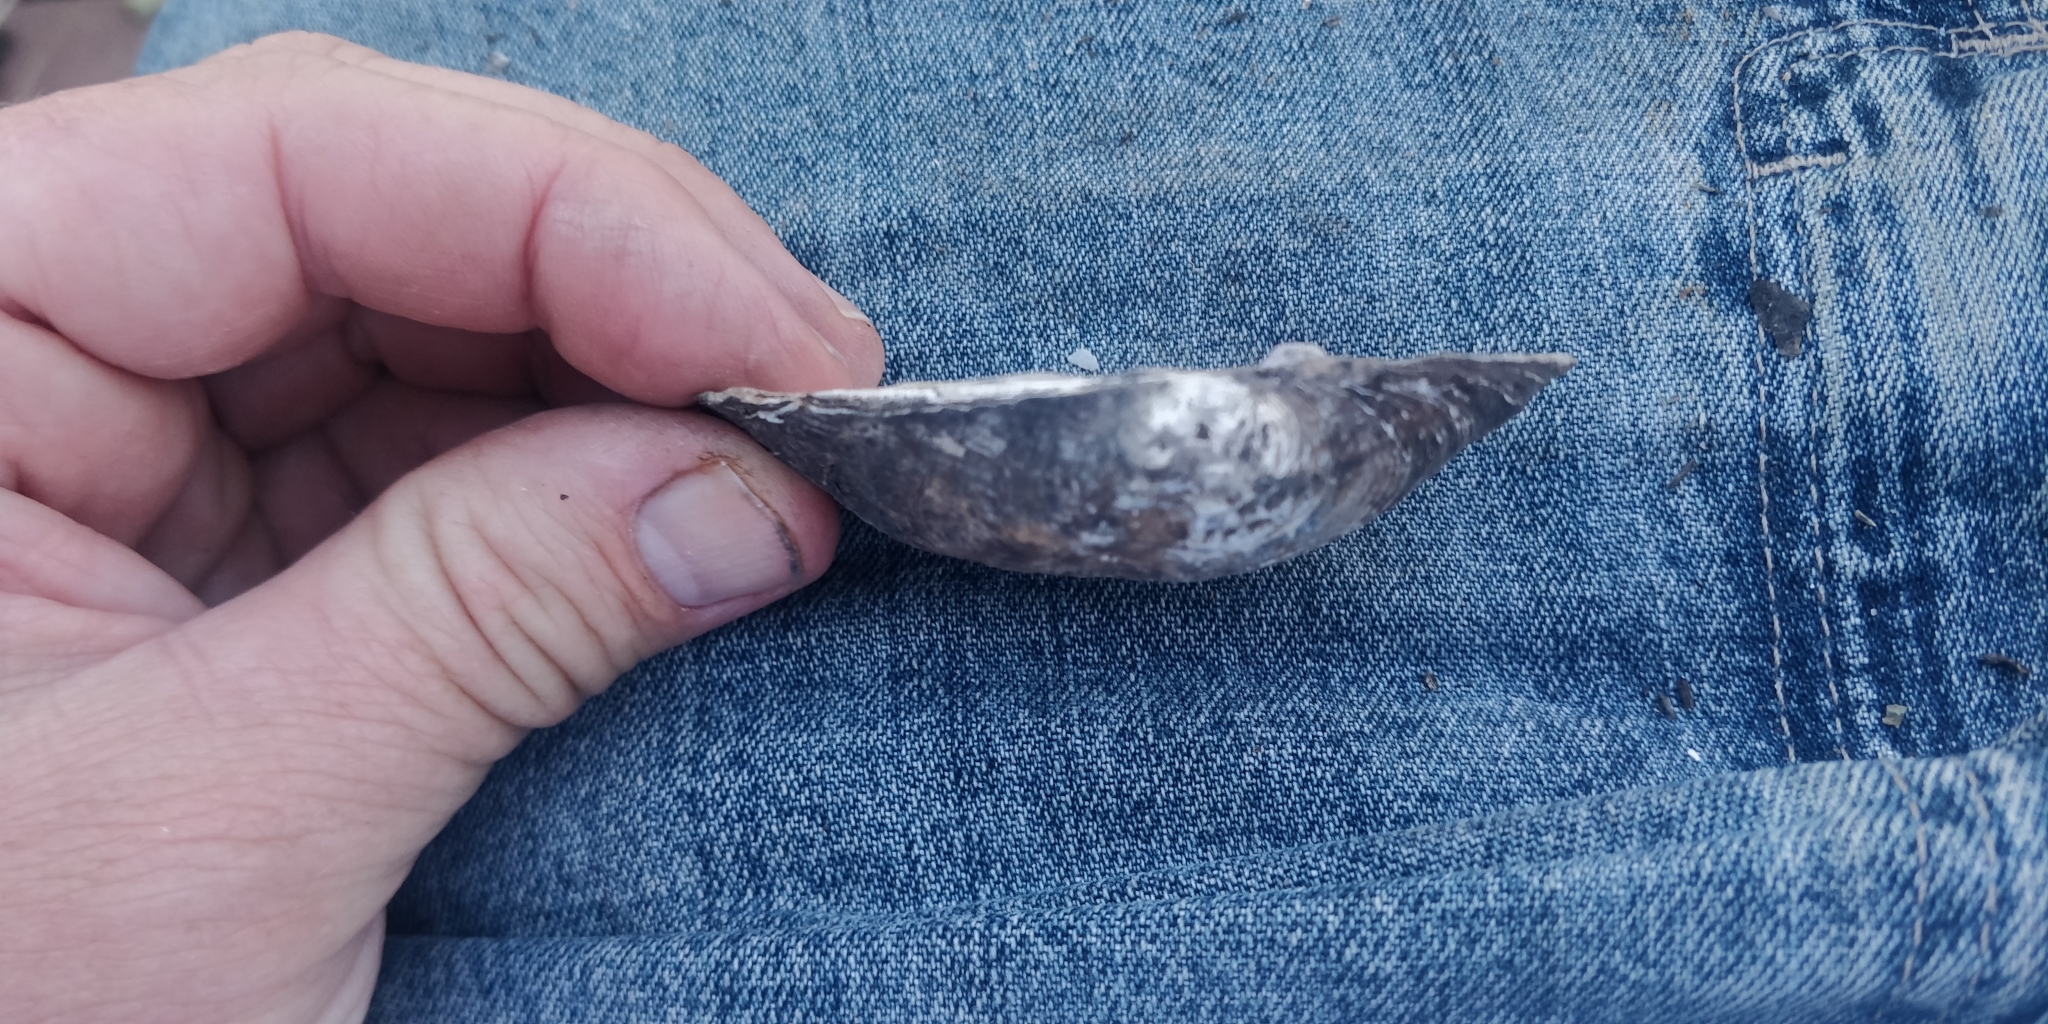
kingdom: Animalia
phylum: Mollusca
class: Bivalvia
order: Unionida
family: Unionidae
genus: Arcidens
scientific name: Arcidens confragosus
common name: Rock pocketbook
